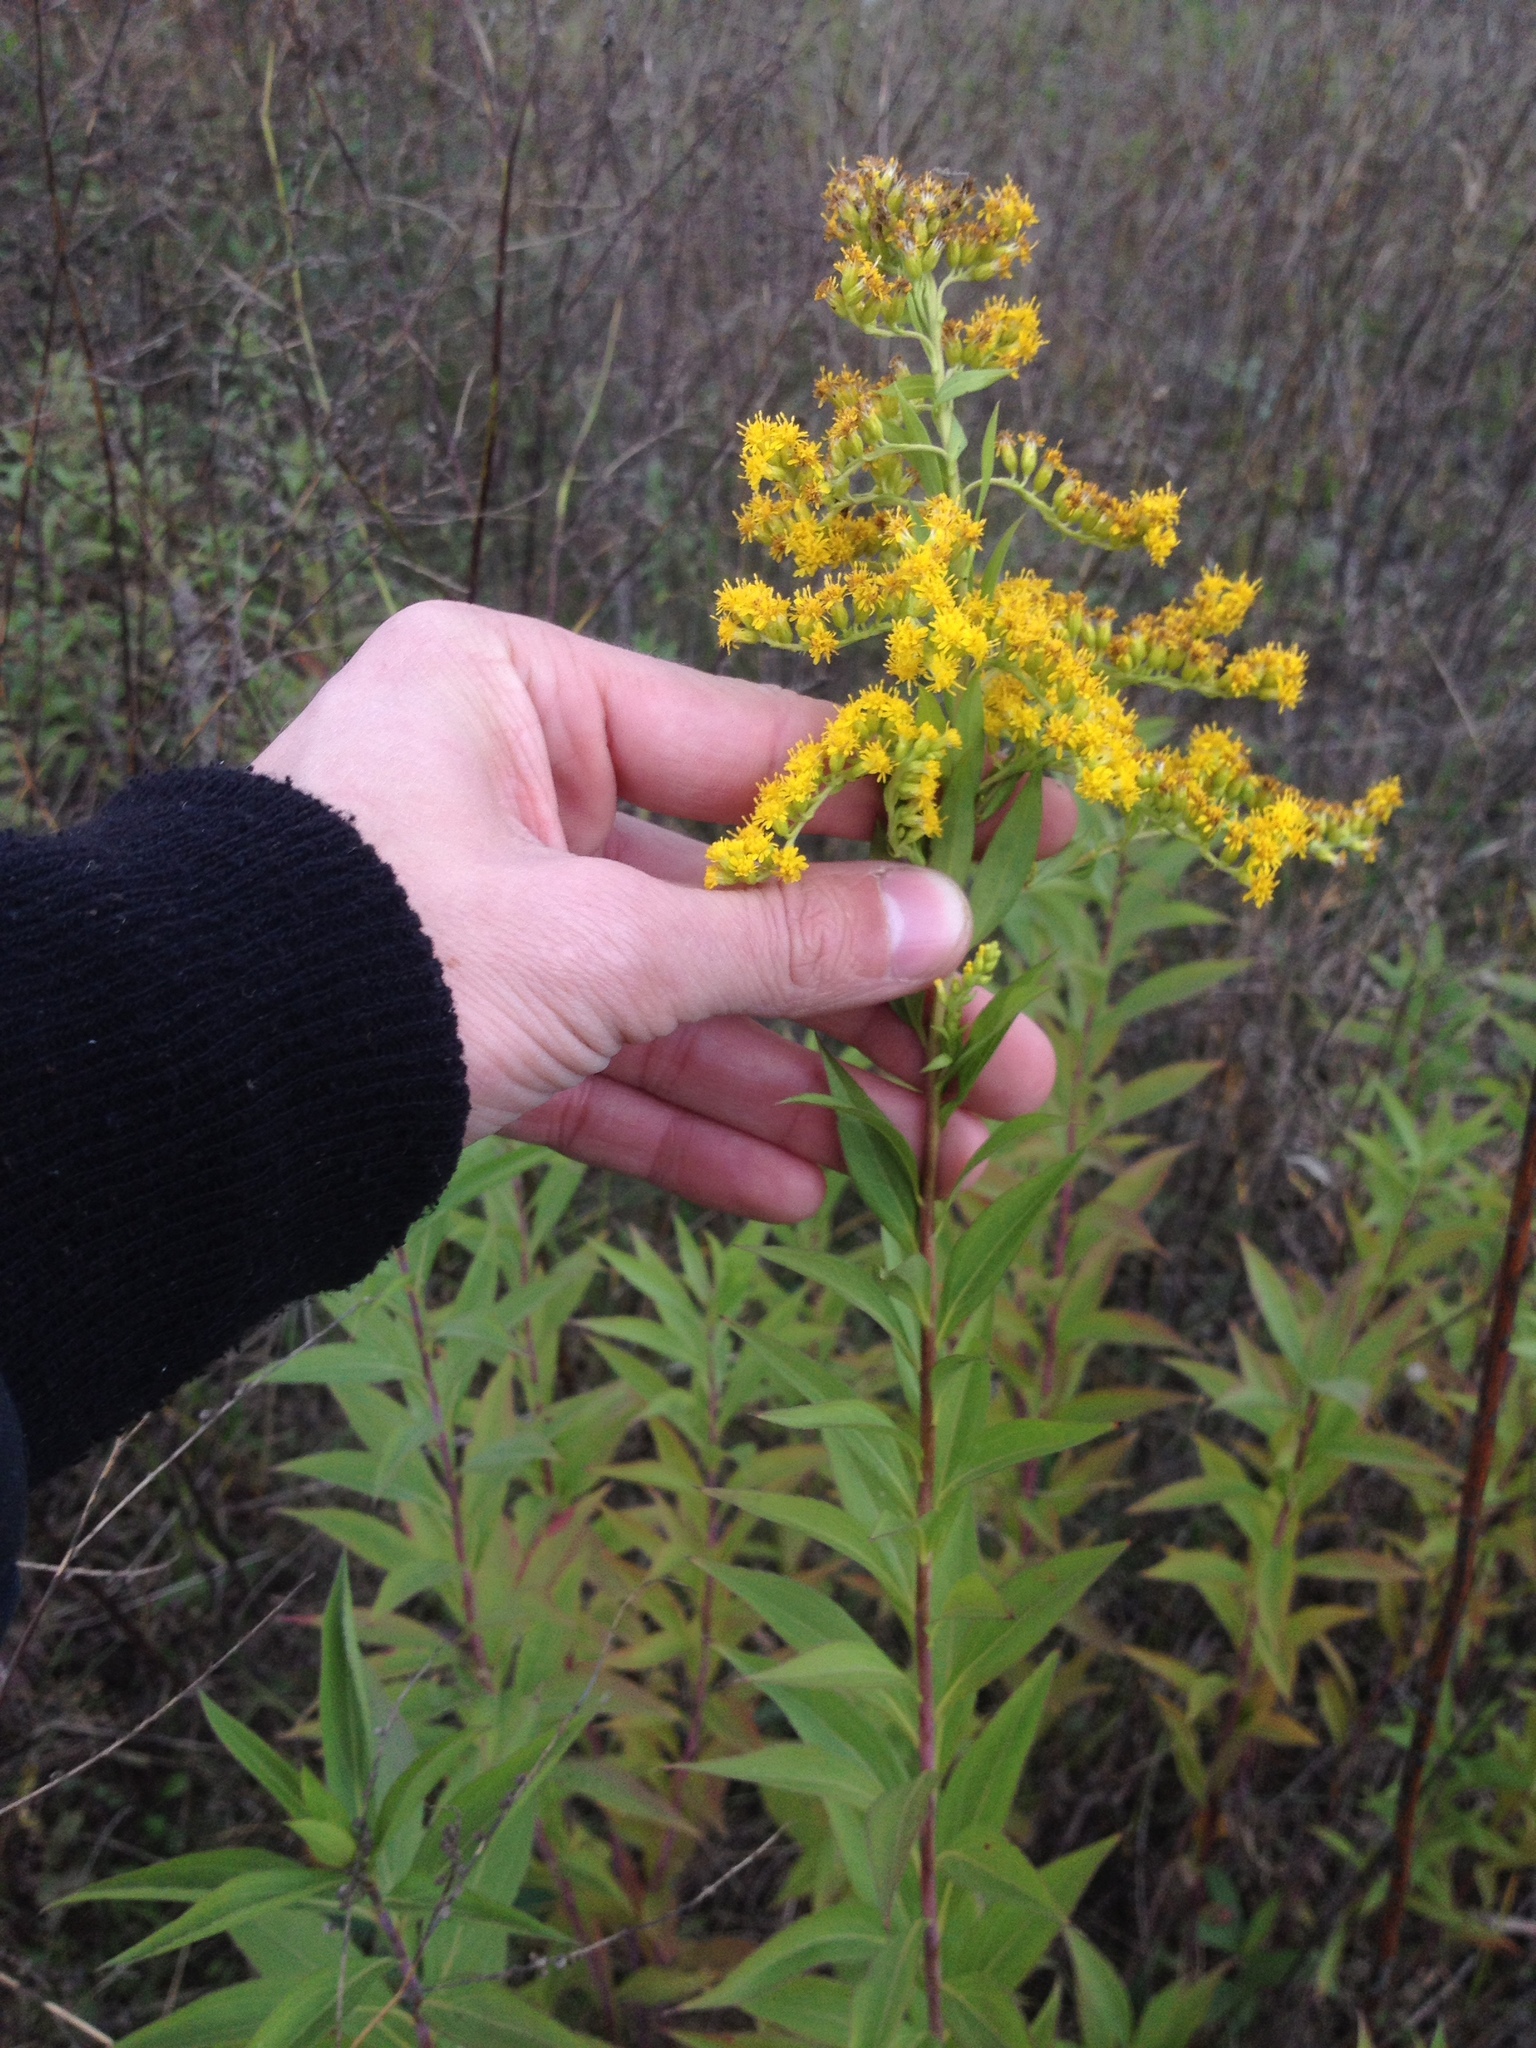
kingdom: Plantae
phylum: Tracheophyta
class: Magnoliopsida
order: Asterales
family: Asteraceae
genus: Solidago
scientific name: Solidago gigantea
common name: Giant goldenrod
